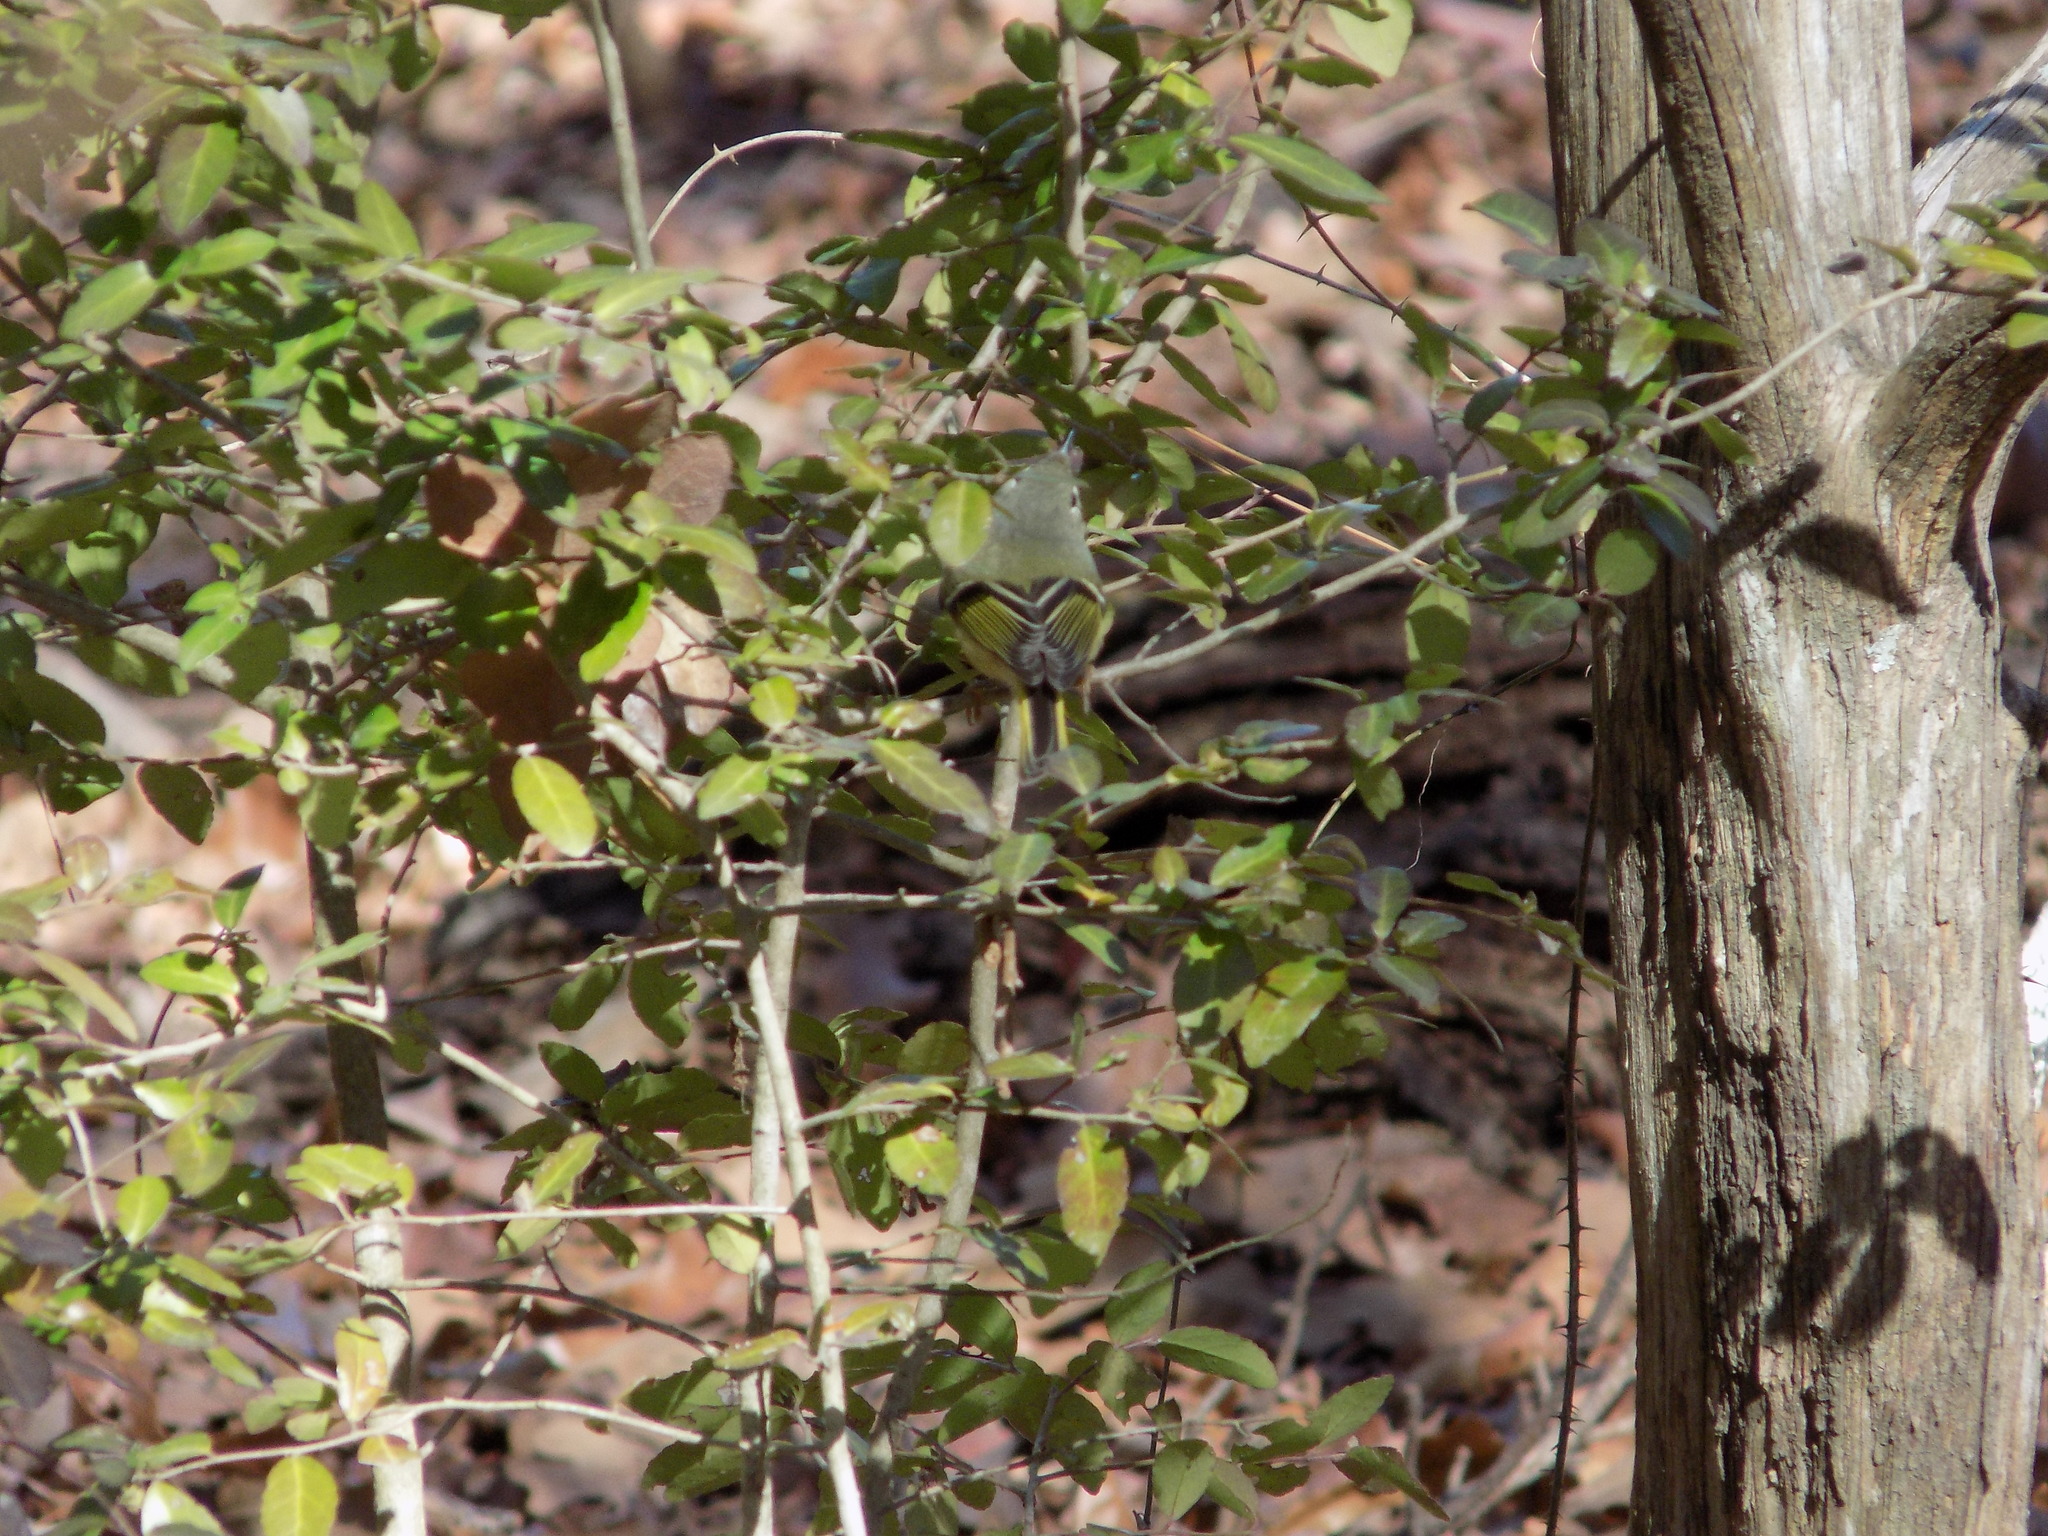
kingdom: Animalia
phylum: Chordata
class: Aves
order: Passeriformes
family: Regulidae
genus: Regulus
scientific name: Regulus calendula
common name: Ruby-crowned kinglet
